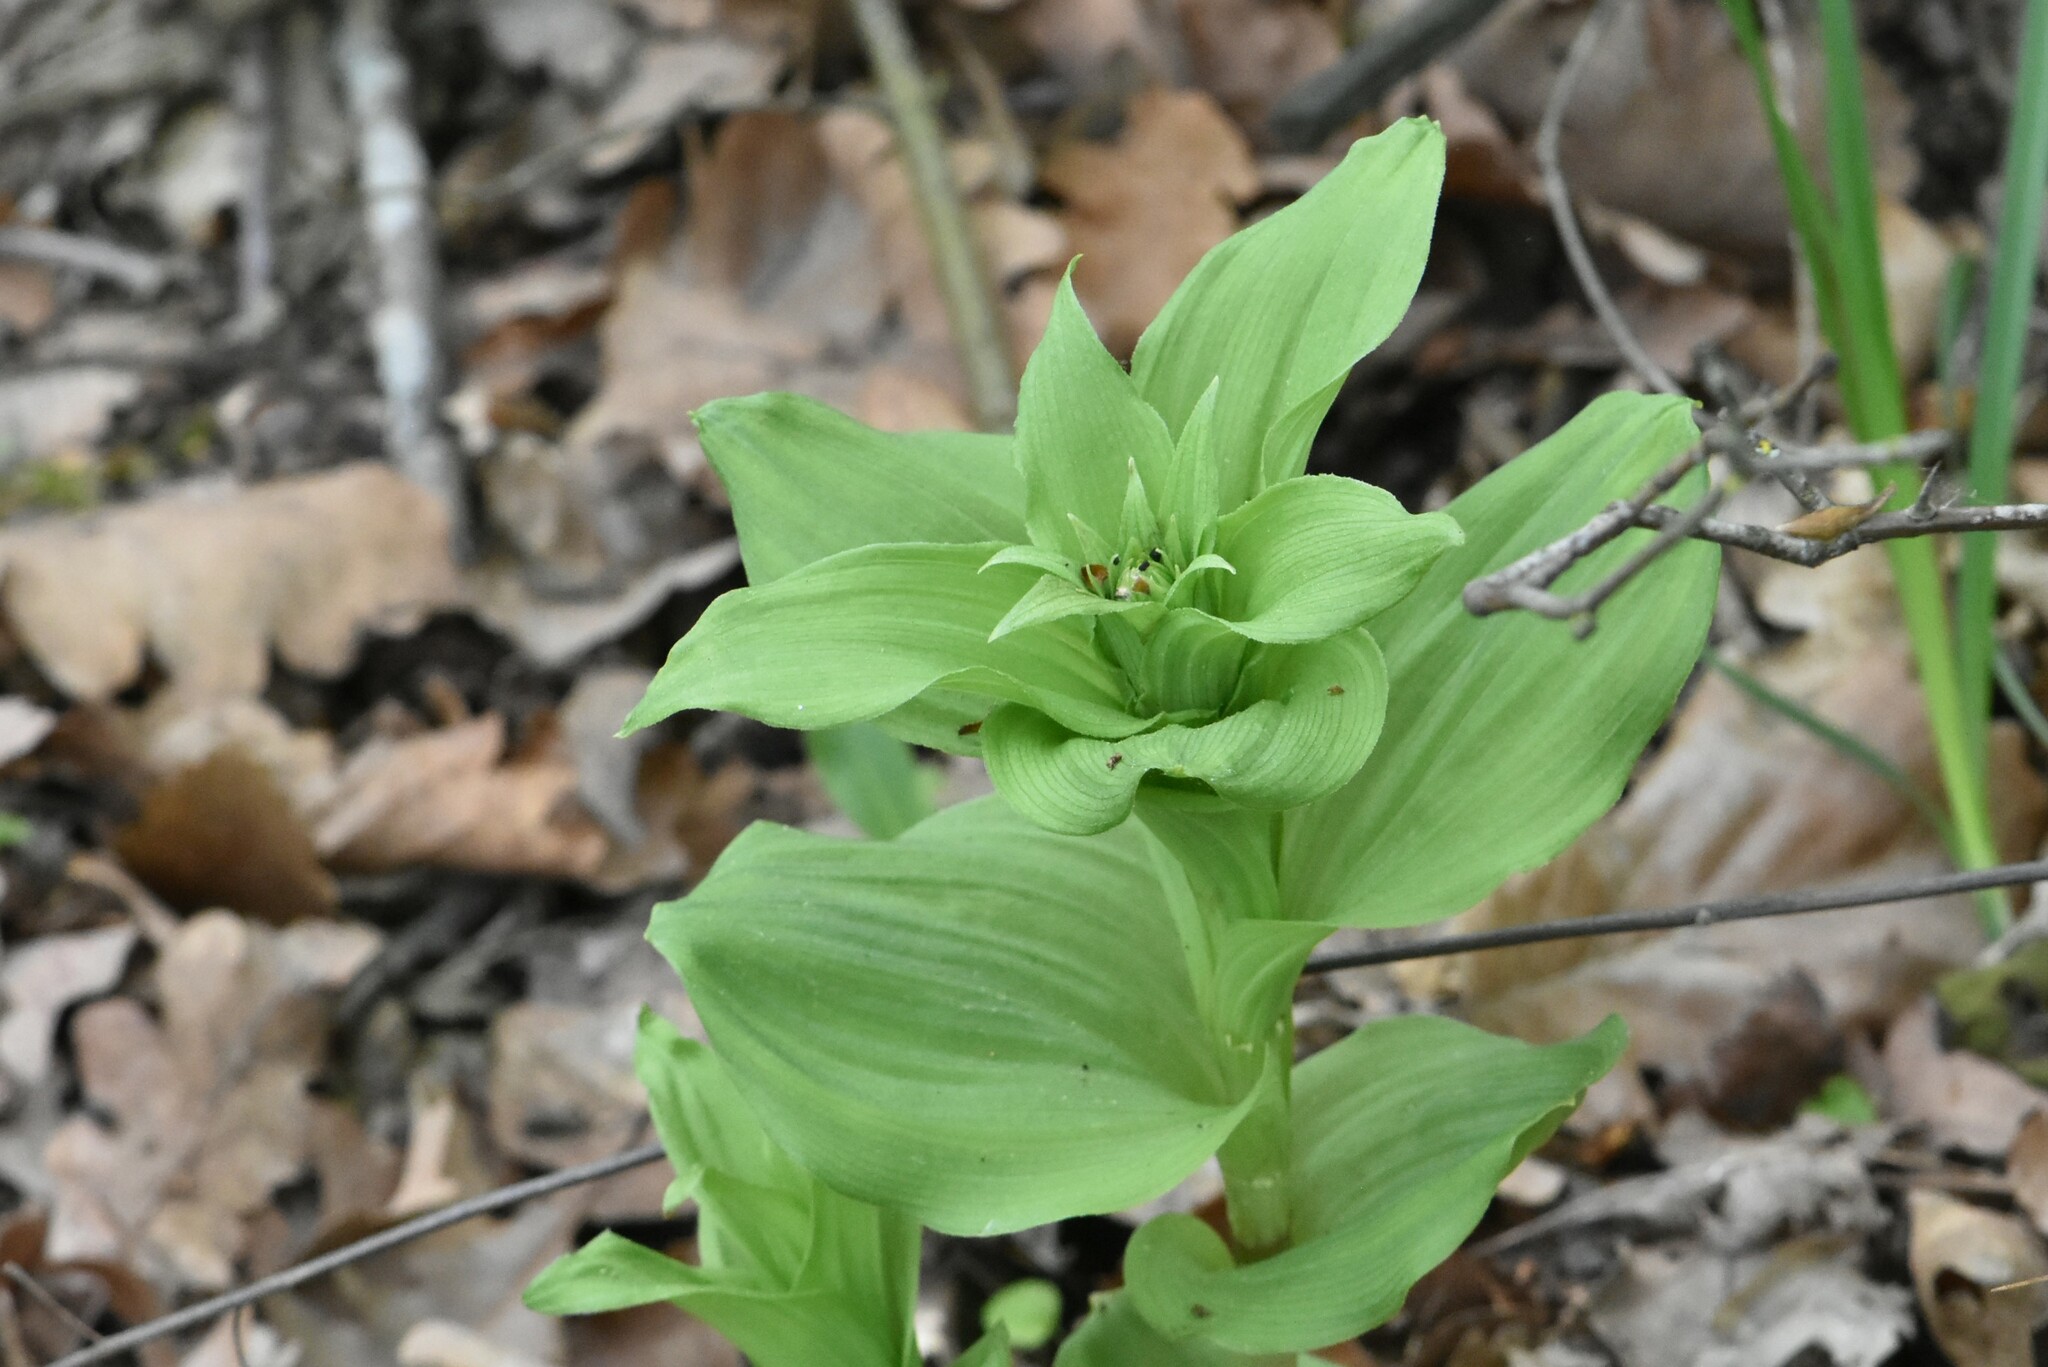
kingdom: Plantae
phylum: Tracheophyta
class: Liliopsida
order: Asparagales
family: Orchidaceae
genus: Epipactis
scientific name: Epipactis helleborine
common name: Broad-leaved helleborine
